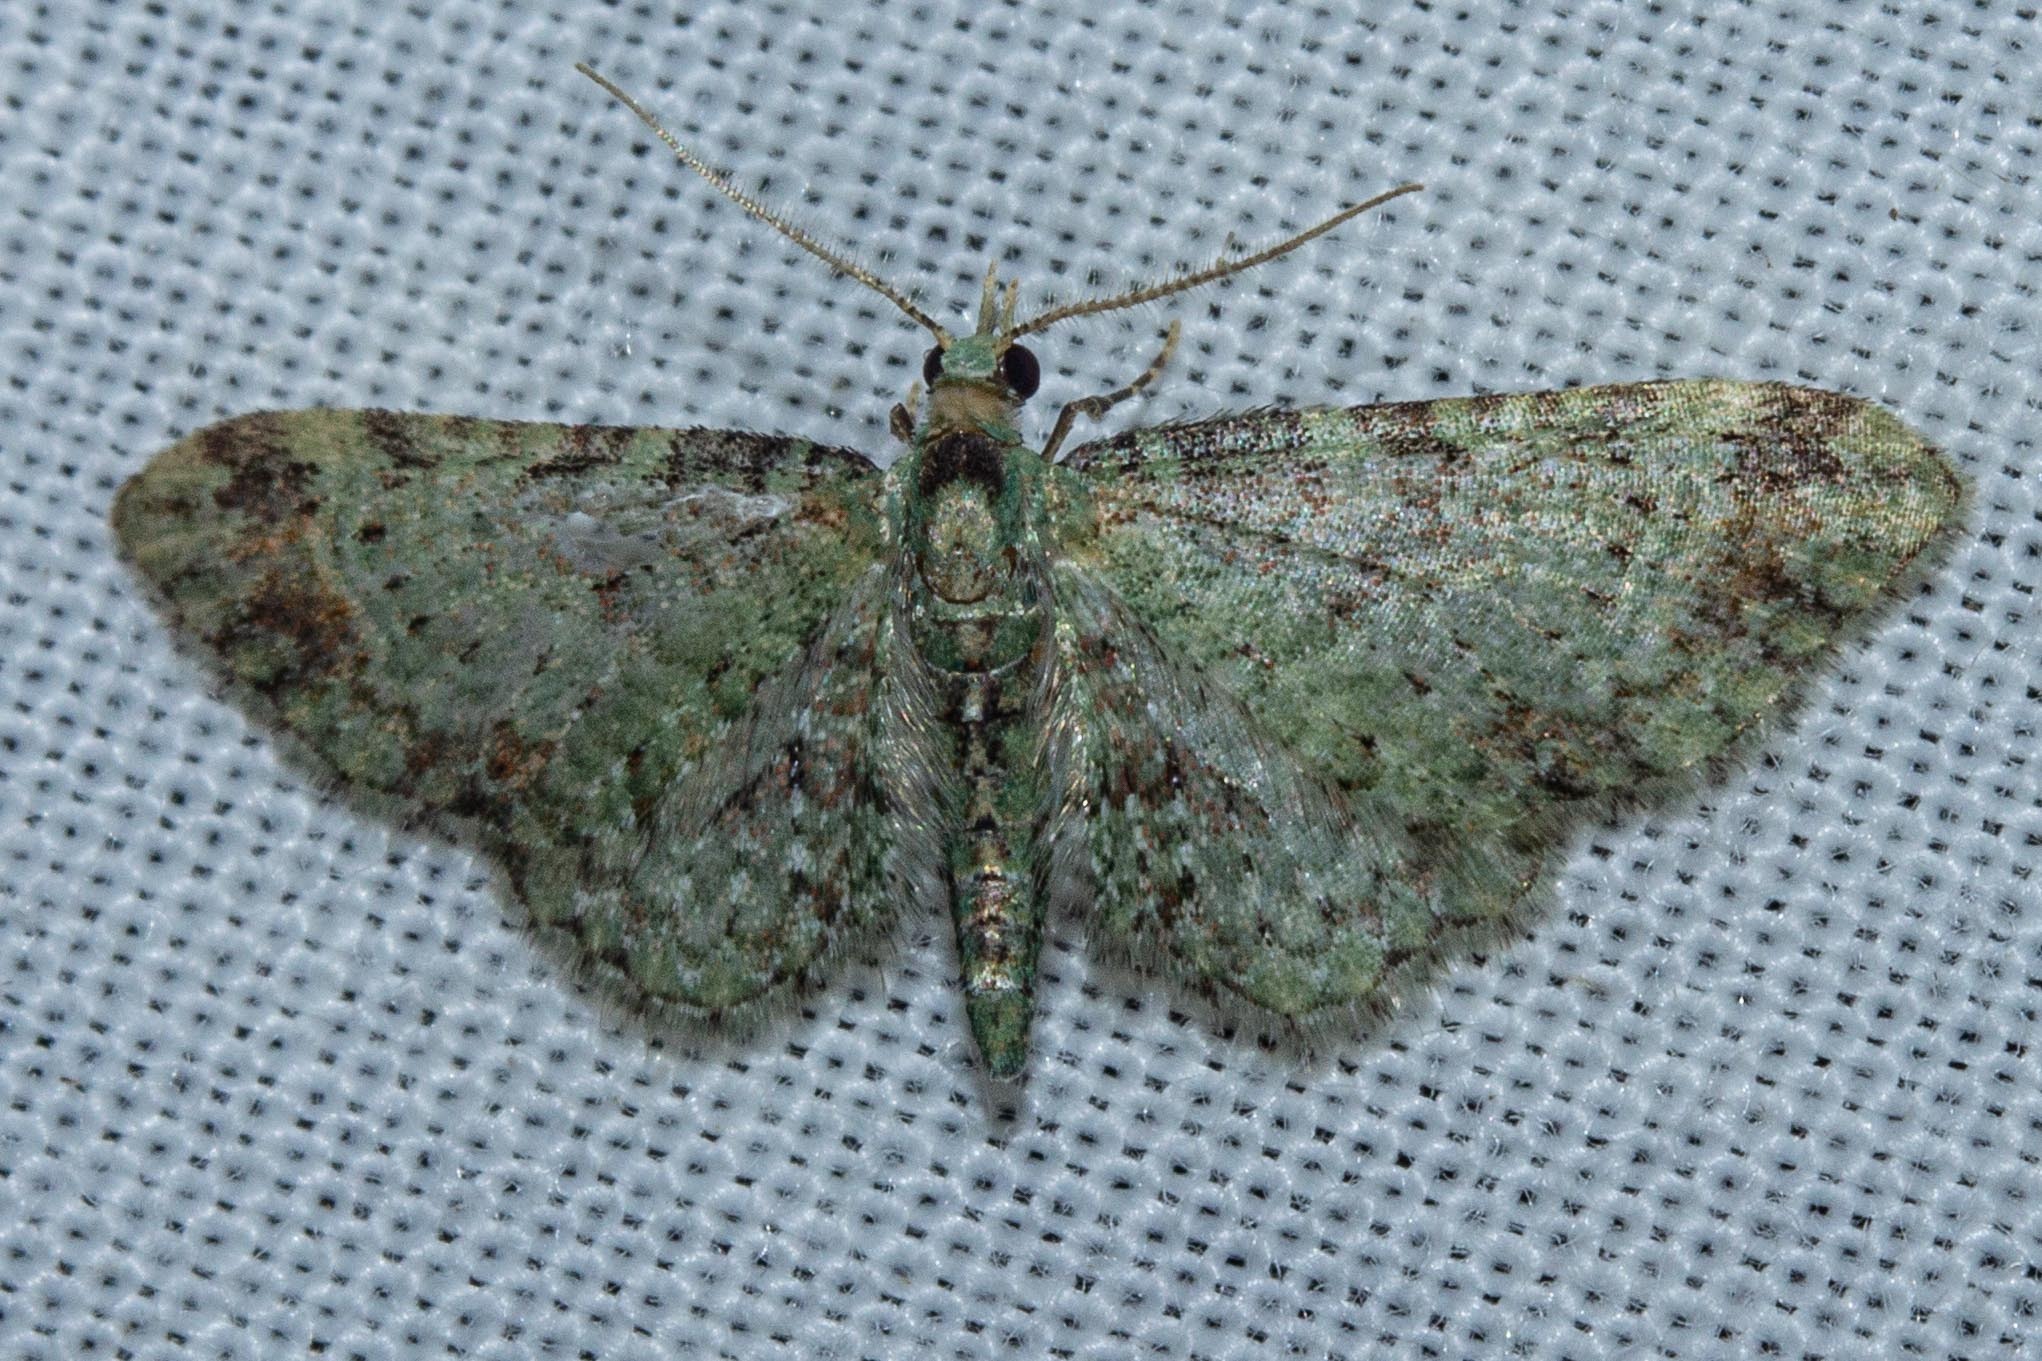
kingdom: Animalia
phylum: Arthropoda
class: Insecta
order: Lepidoptera
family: Geometridae
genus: Pasiphila
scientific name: Pasiphila plinthina
